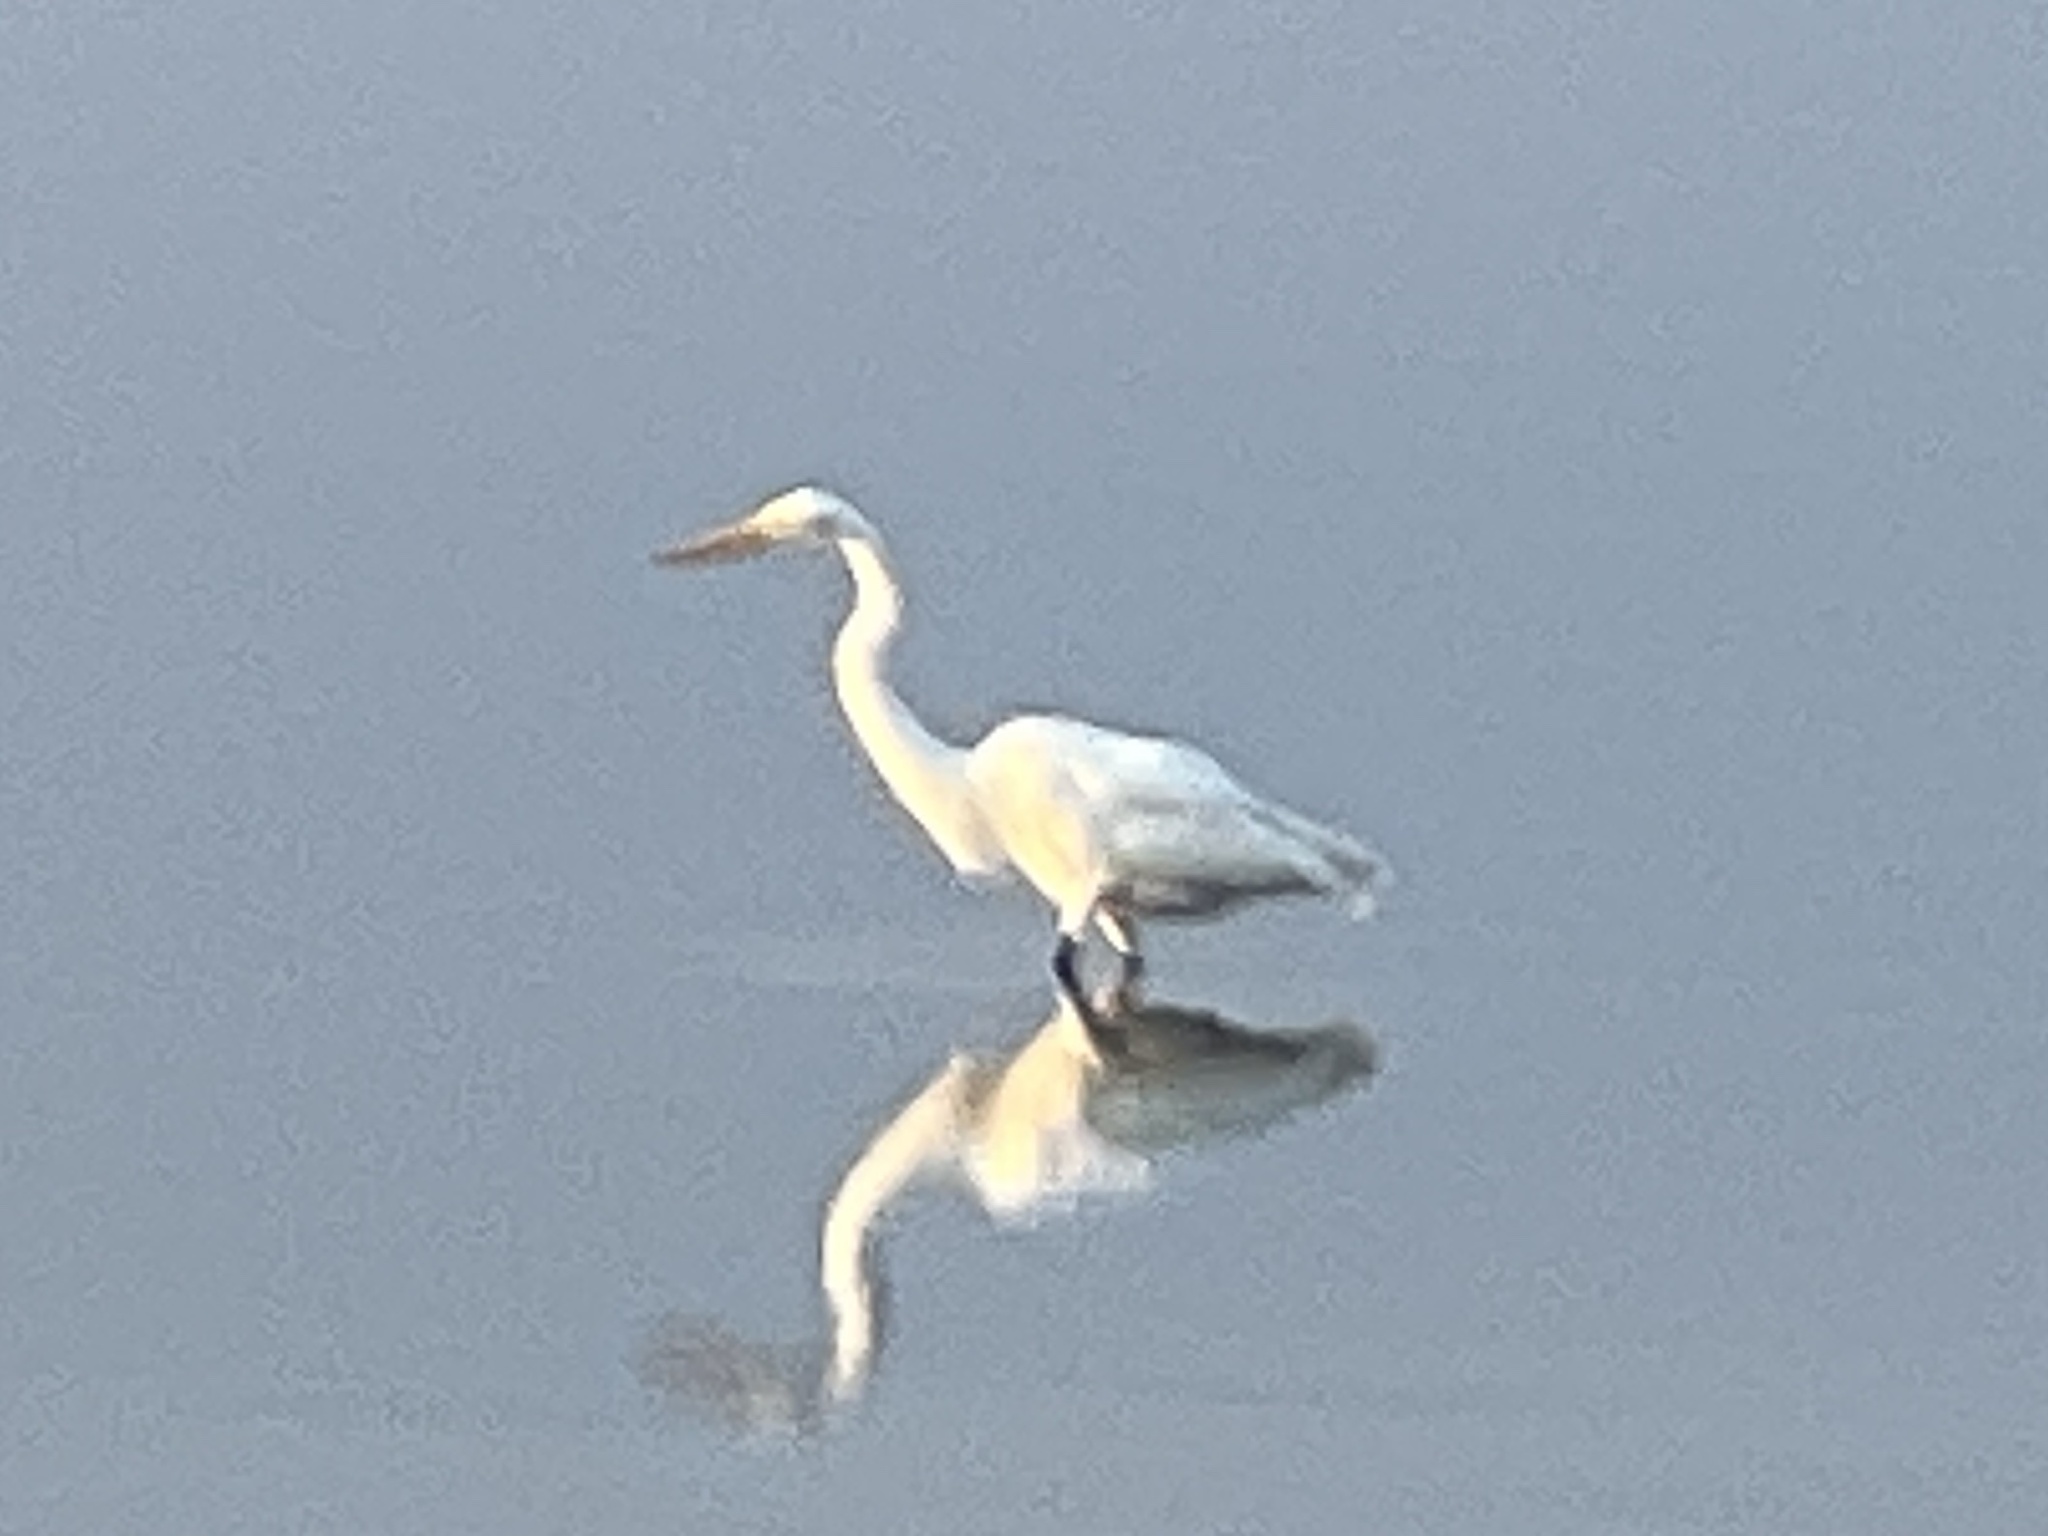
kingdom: Animalia
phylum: Chordata
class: Aves
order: Pelecaniformes
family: Ardeidae
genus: Ardea
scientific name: Ardea alba
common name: Great egret
